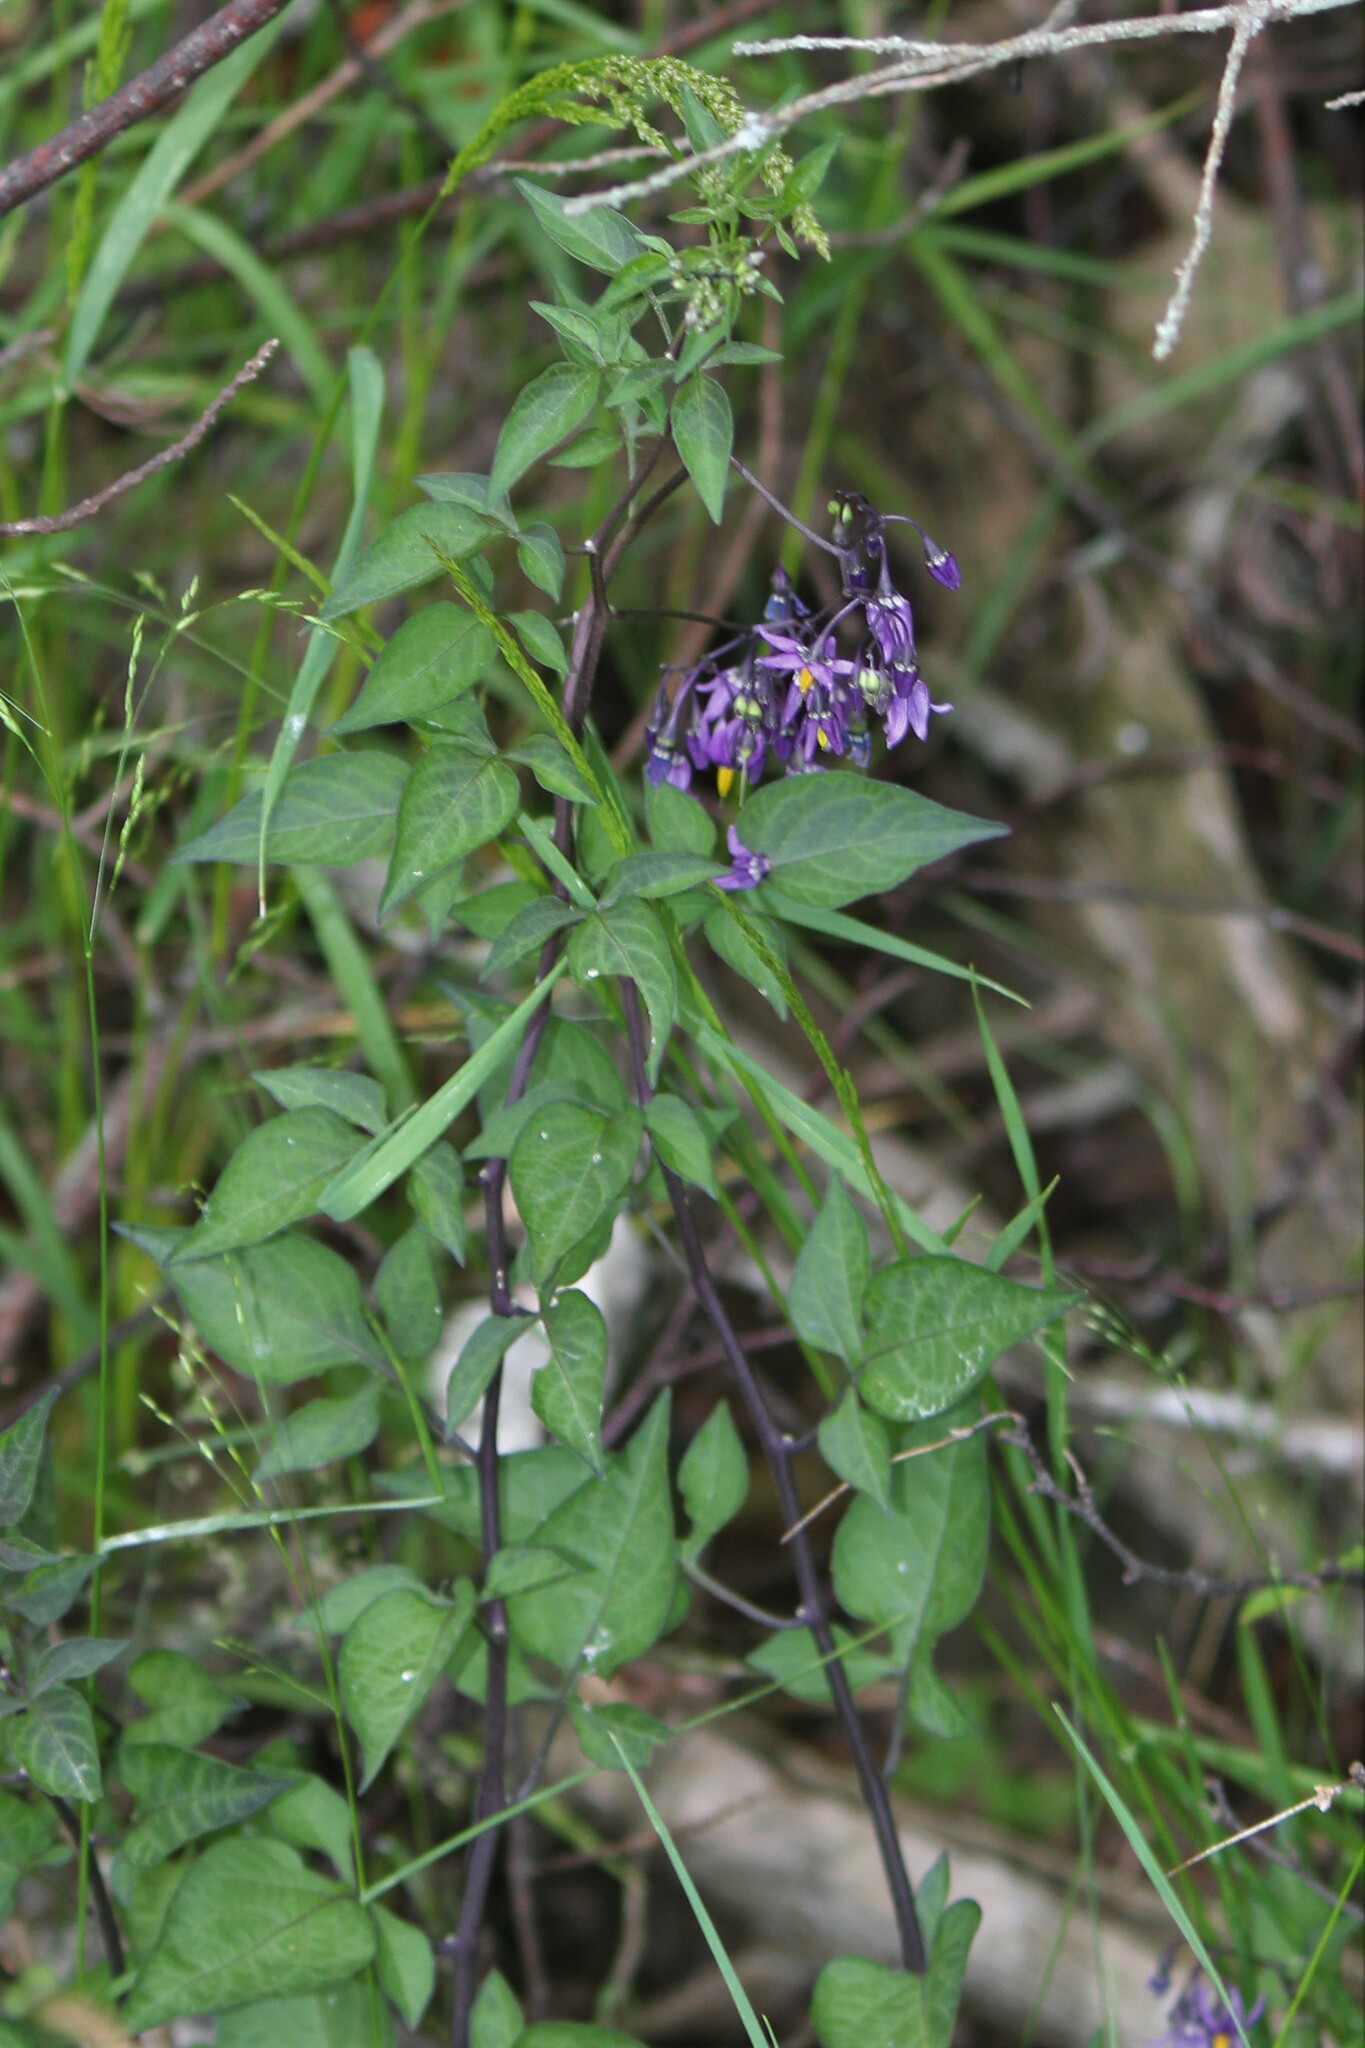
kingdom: Plantae
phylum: Tracheophyta
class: Magnoliopsida
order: Solanales
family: Solanaceae
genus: Solanum
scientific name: Solanum dulcamara
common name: Climbing nightshade
